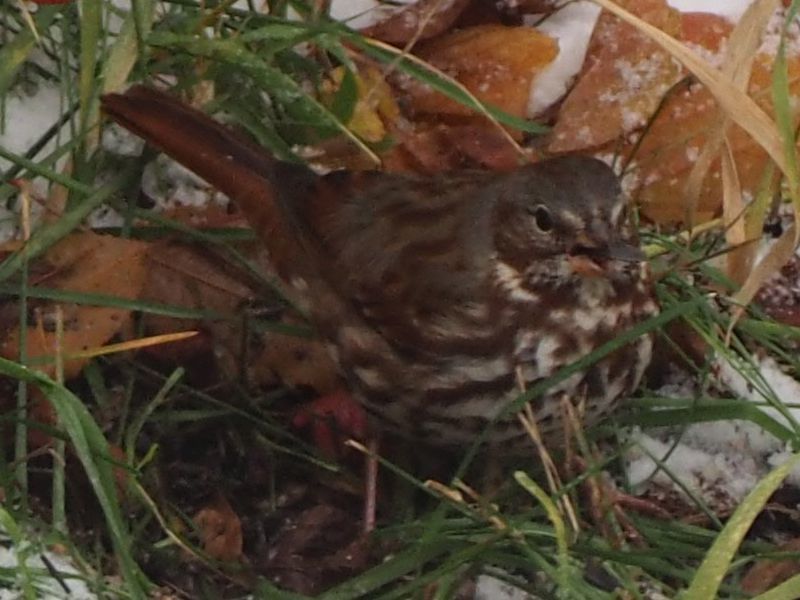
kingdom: Animalia
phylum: Chordata
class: Aves
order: Passeriformes
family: Passerellidae
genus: Passerella
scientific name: Passerella iliaca
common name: Fox sparrow
